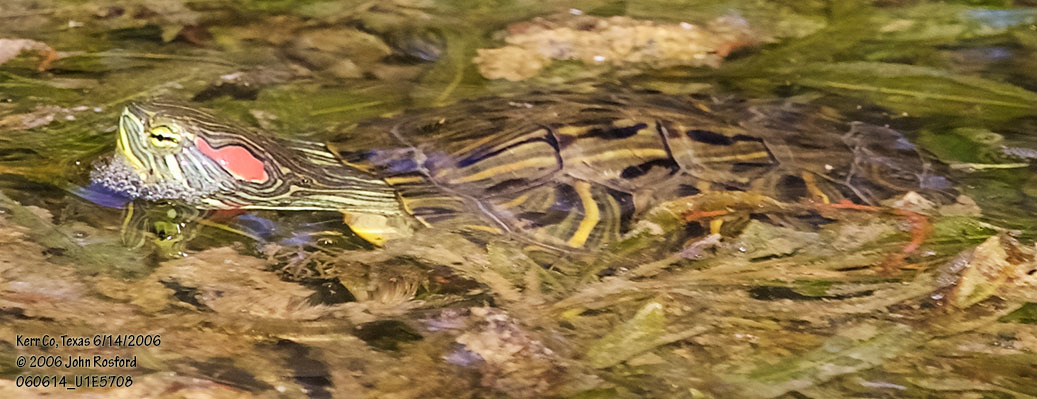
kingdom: Animalia
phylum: Chordata
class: Testudines
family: Emydidae
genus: Trachemys
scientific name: Trachemys scripta
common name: Slider
